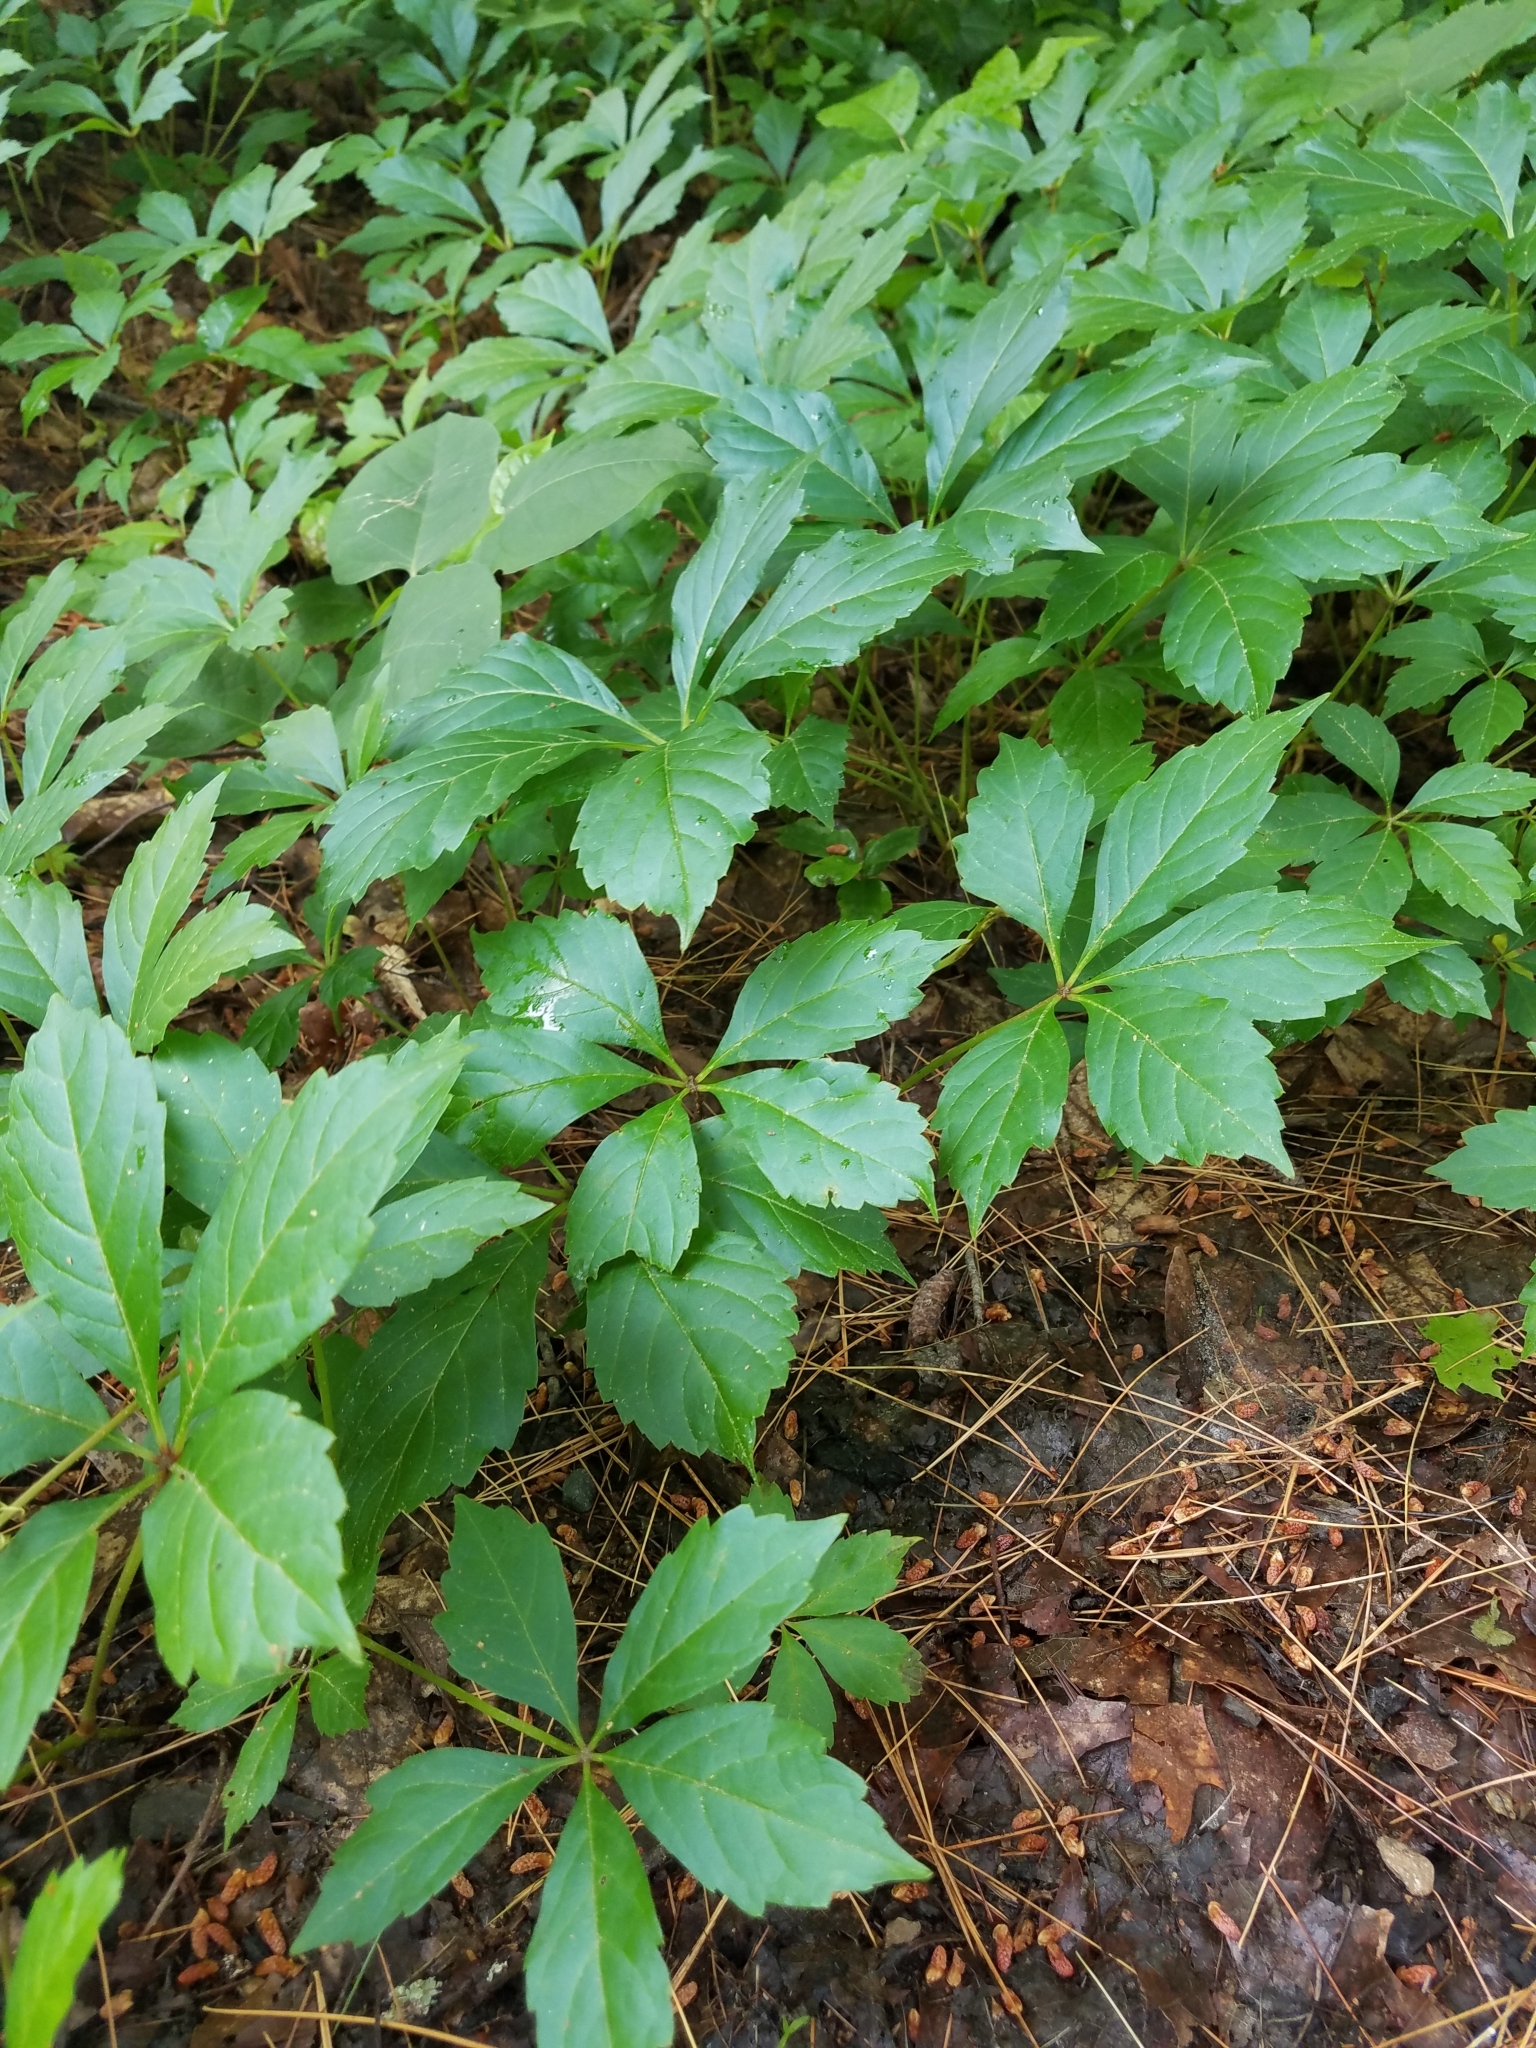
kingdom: Plantae
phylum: Tracheophyta
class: Magnoliopsida
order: Vitales
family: Vitaceae
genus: Parthenocissus
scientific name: Parthenocissus quinquefolia
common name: Virginia-creeper
